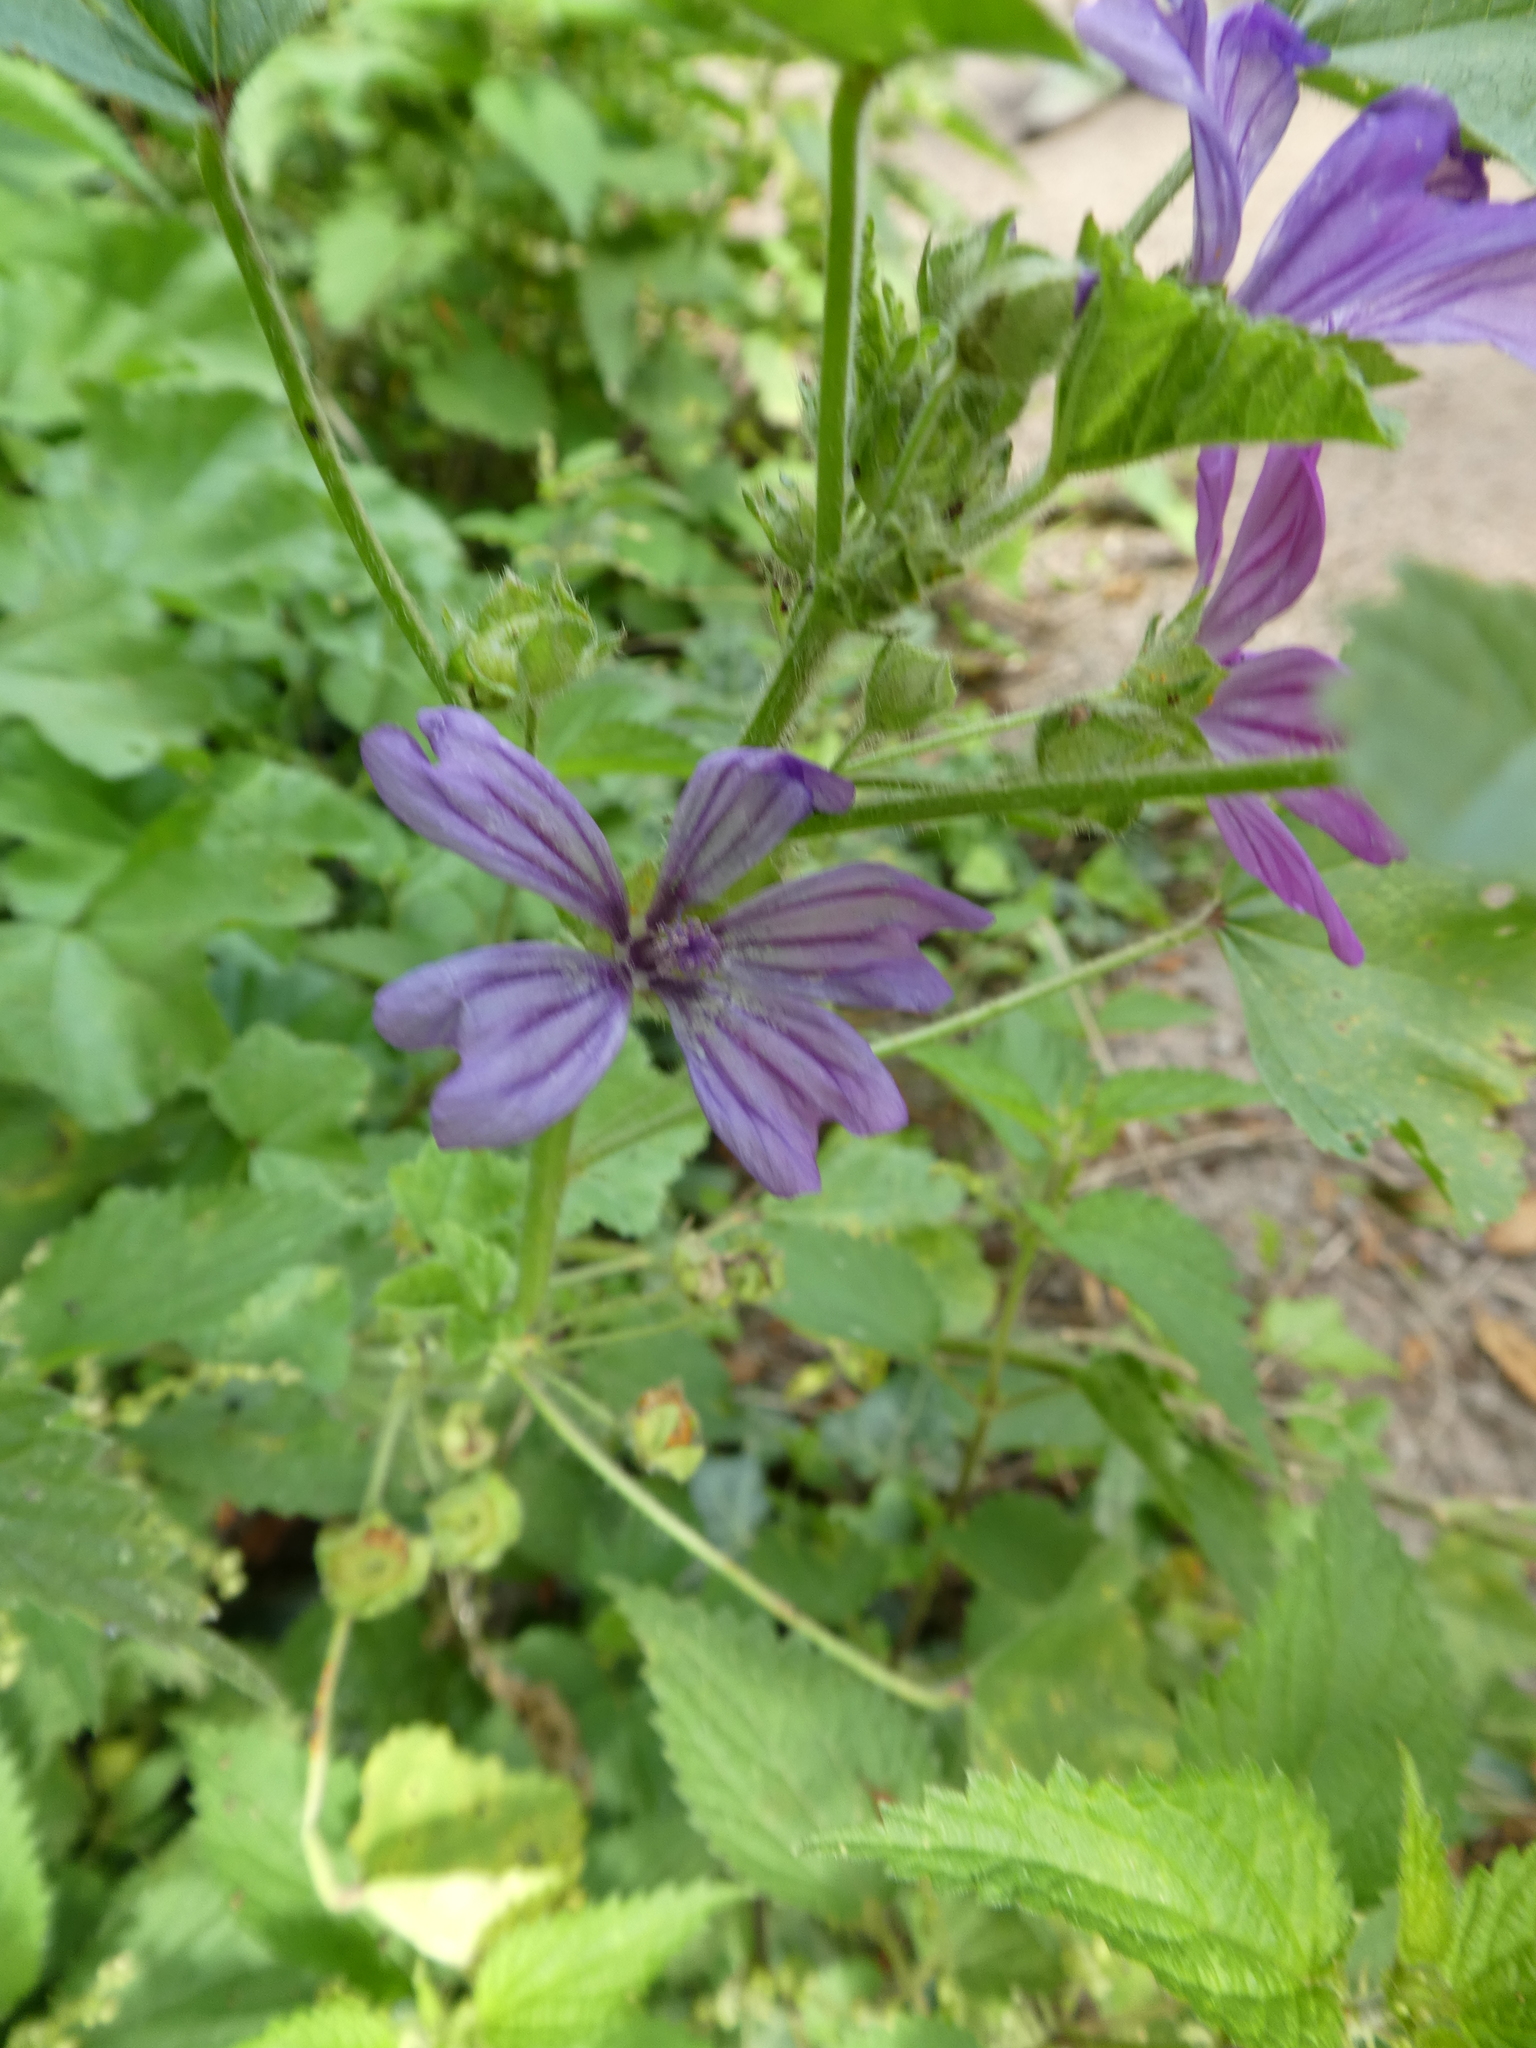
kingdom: Plantae
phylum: Tracheophyta
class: Magnoliopsida
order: Malvales
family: Malvaceae
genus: Malva
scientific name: Malva sylvestris
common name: Common mallow
